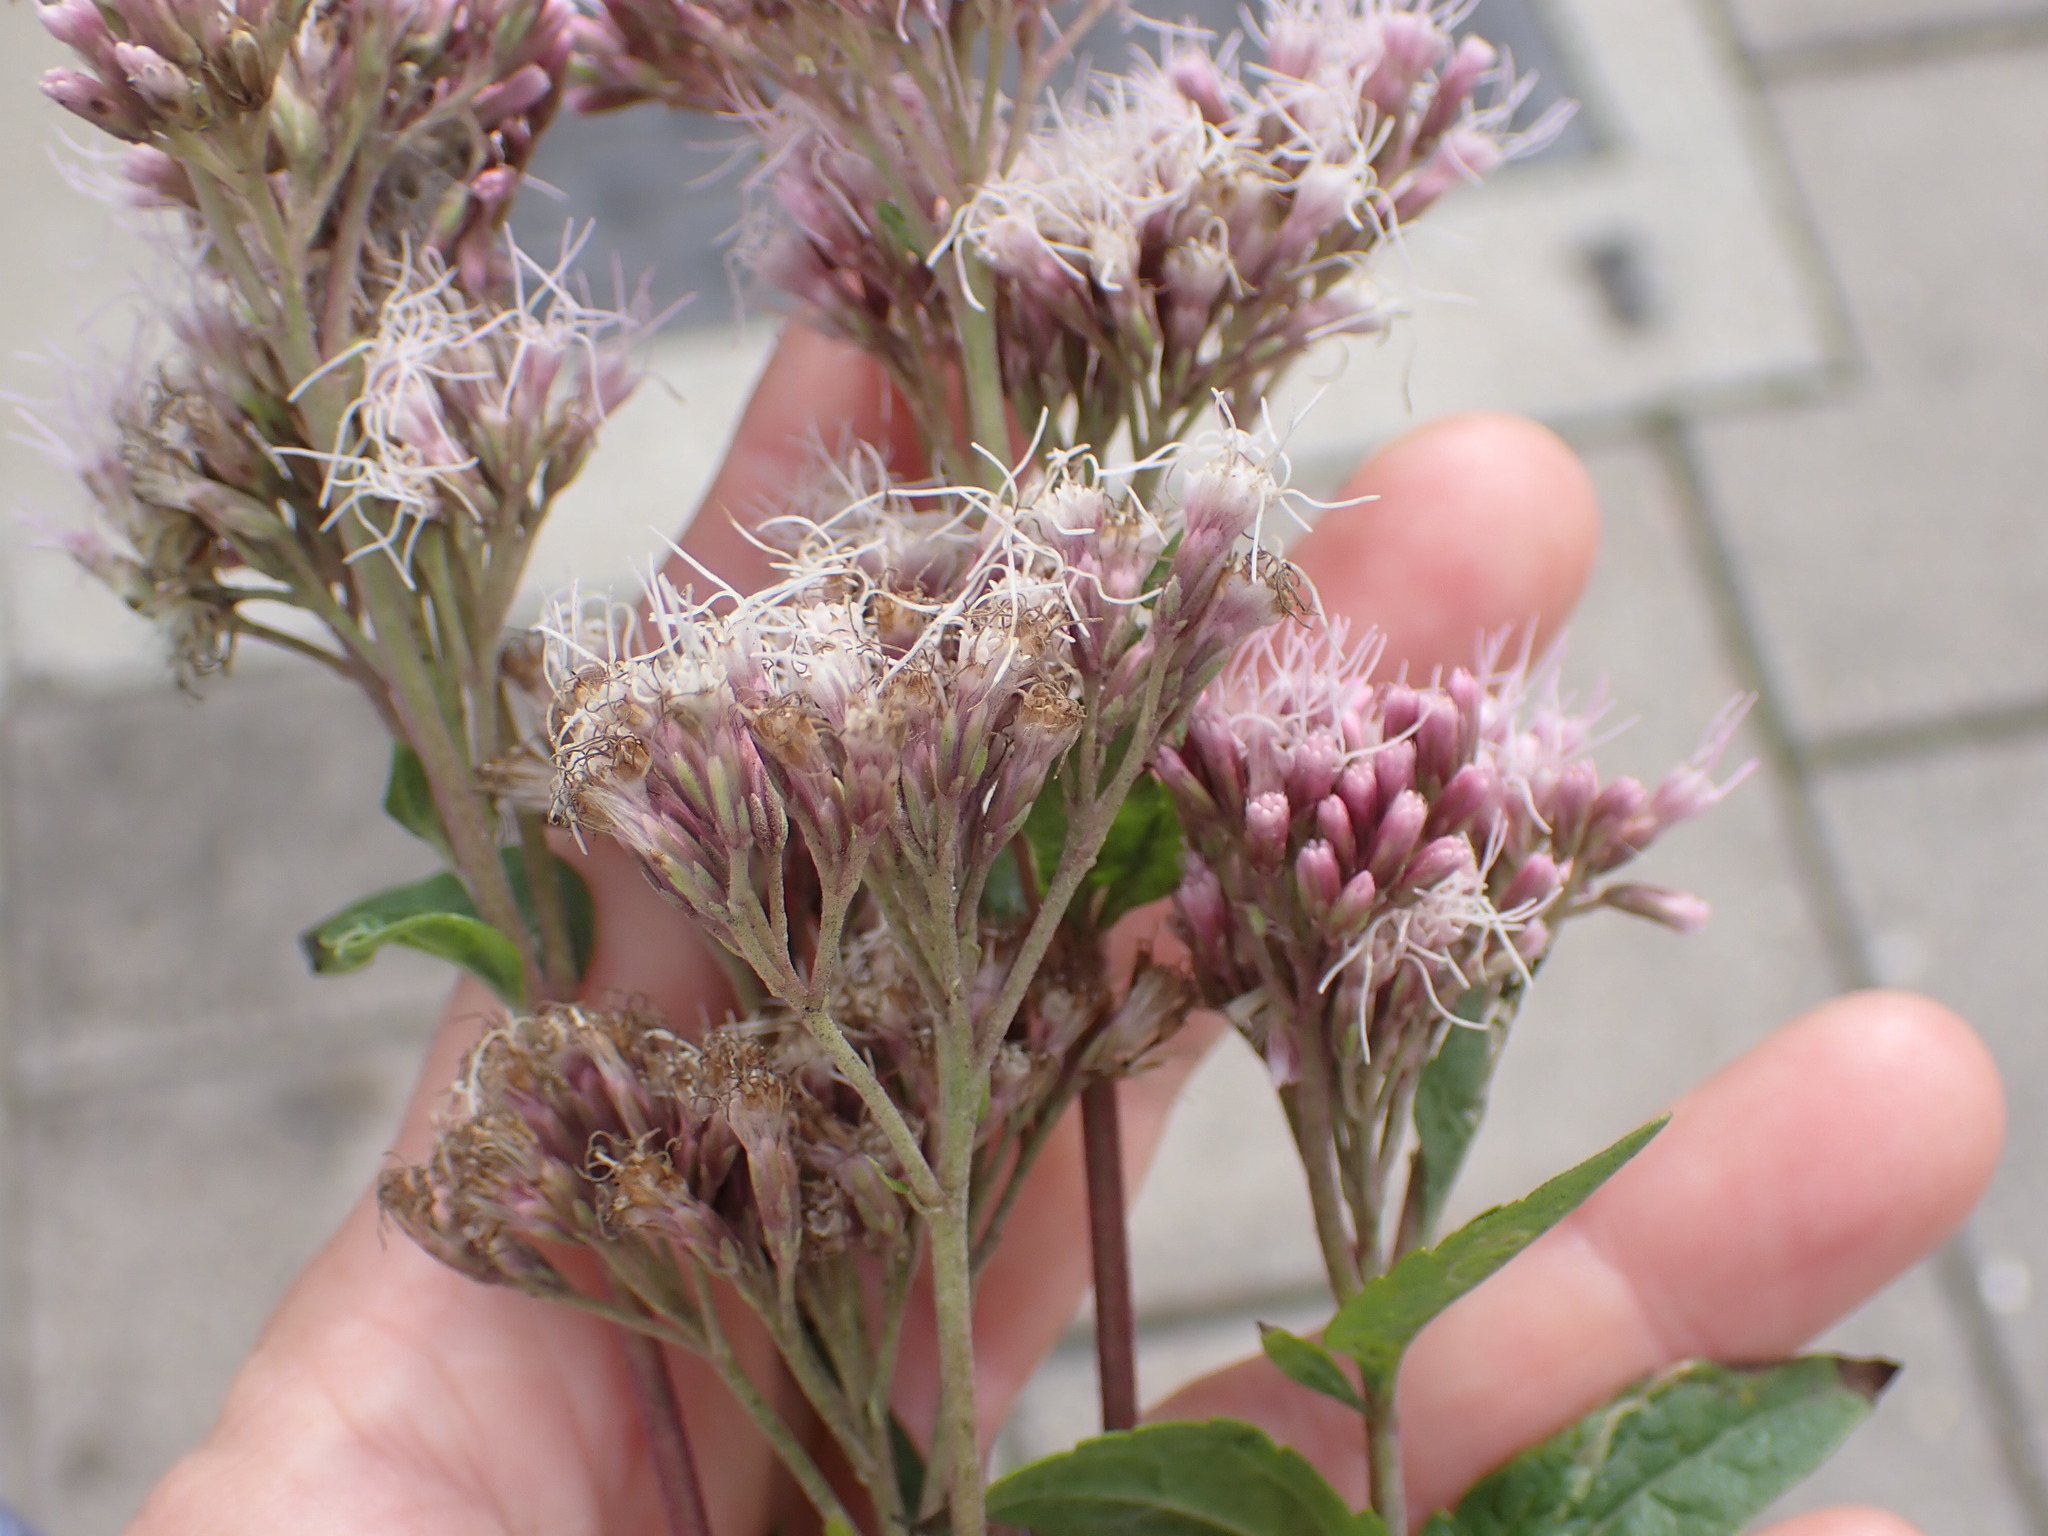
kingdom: Plantae
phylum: Tracheophyta
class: Magnoliopsida
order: Asterales
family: Asteraceae
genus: Eupatorium
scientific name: Eupatorium cannabinum
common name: Hemp-agrimony
